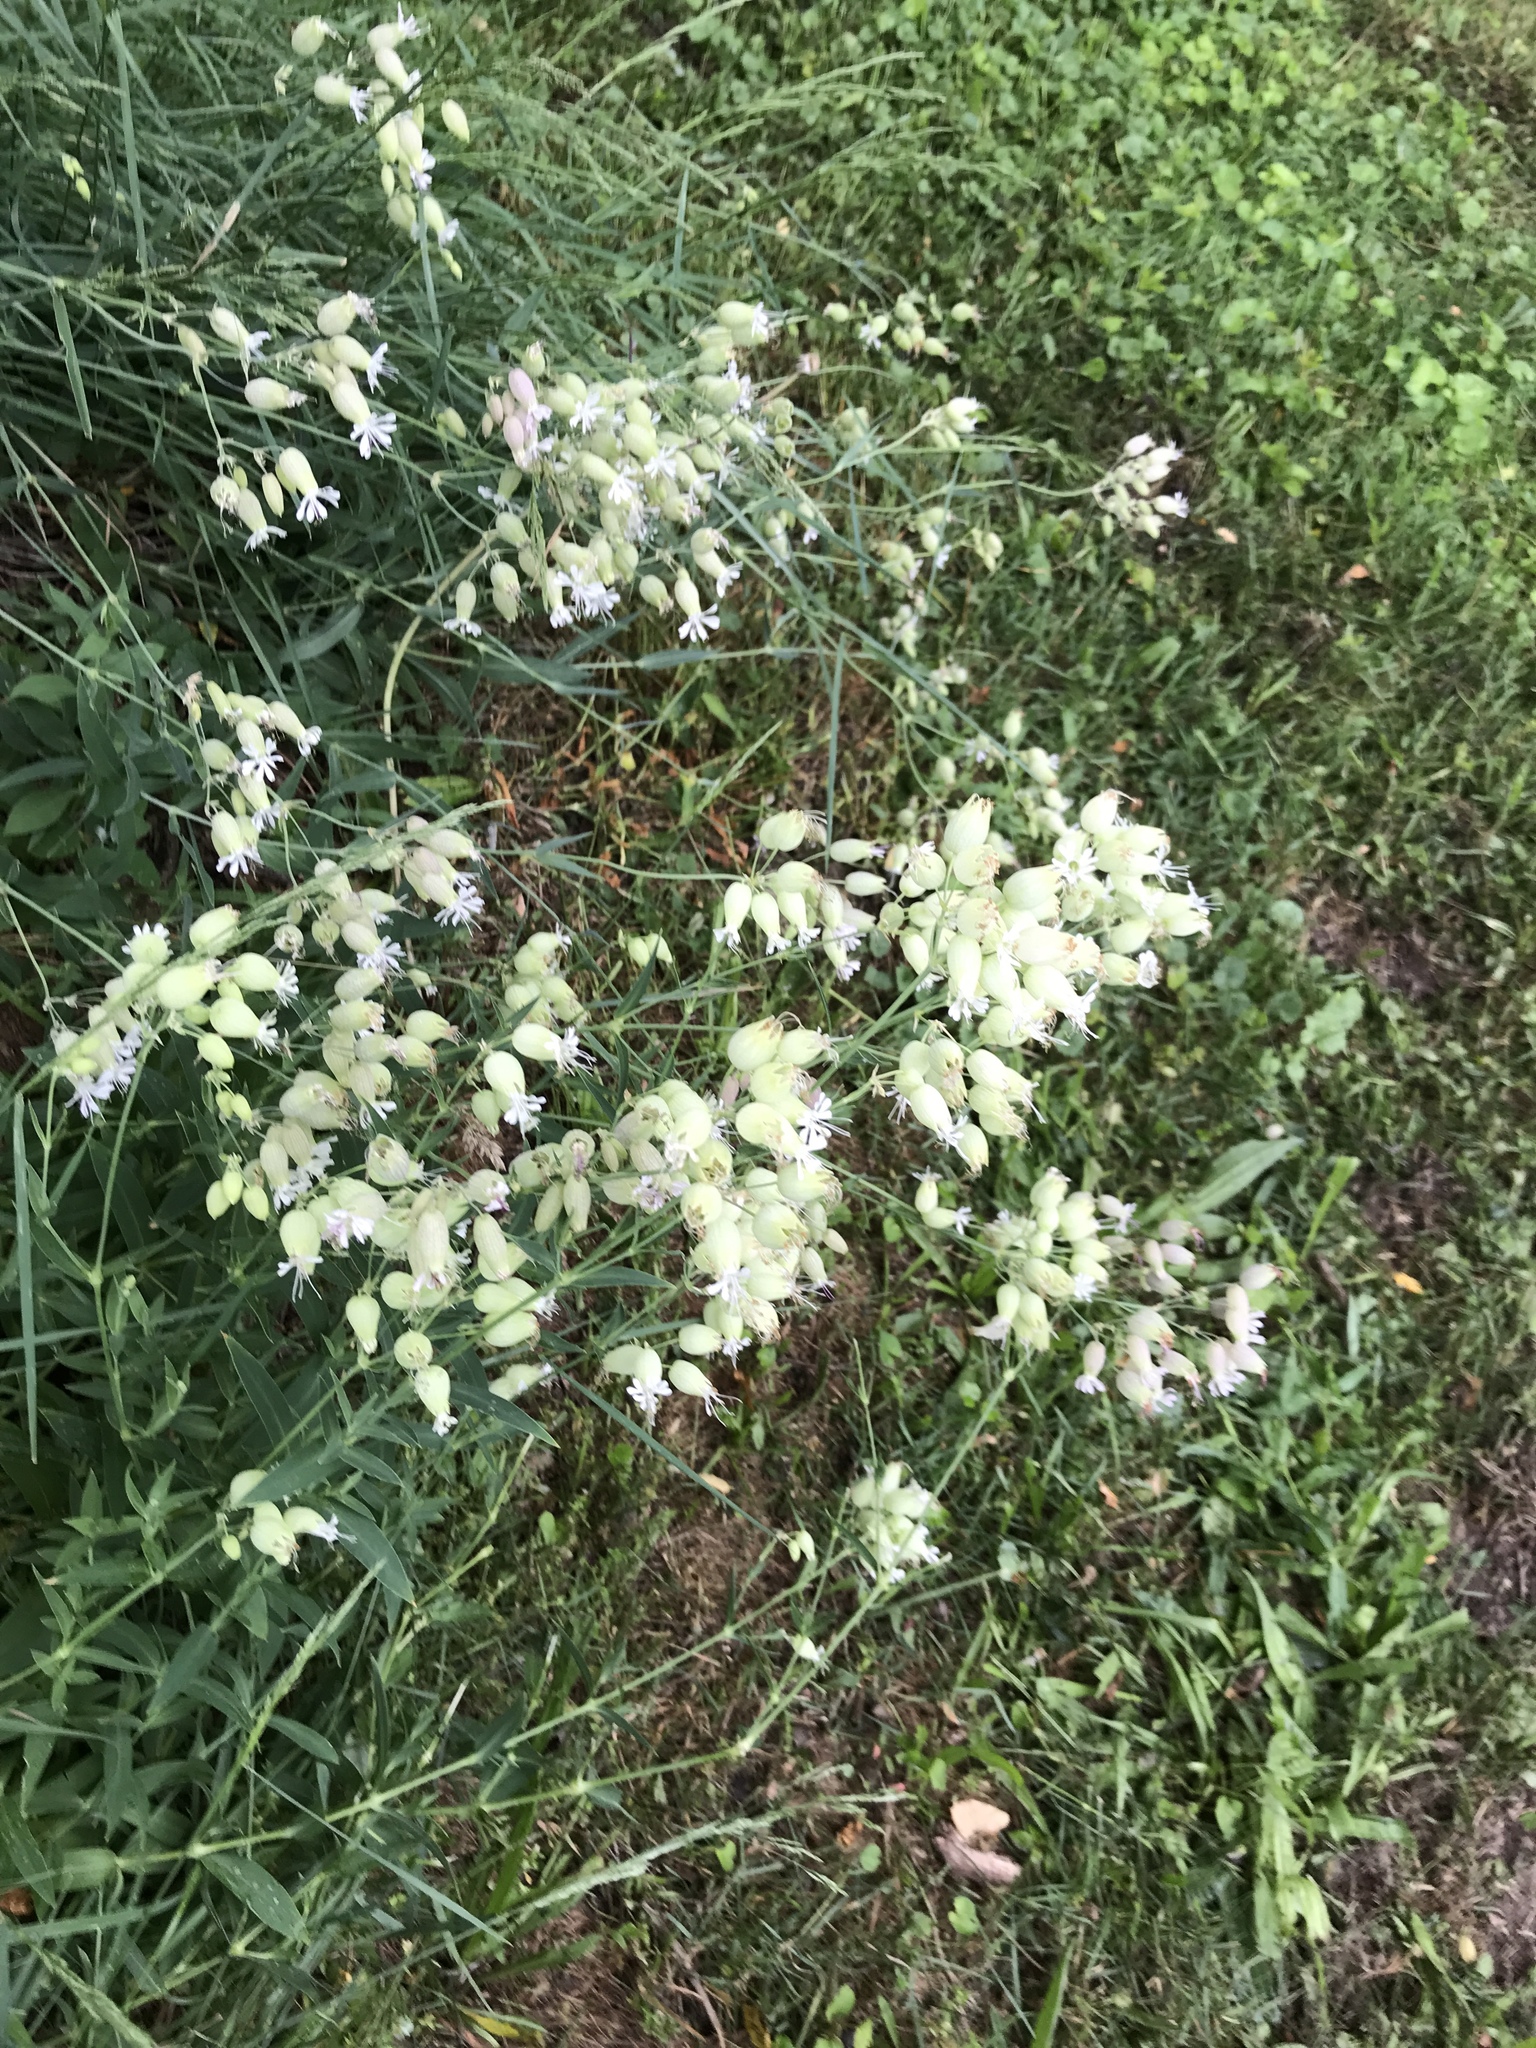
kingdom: Plantae
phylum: Tracheophyta
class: Magnoliopsida
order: Caryophyllales
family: Caryophyllaceae
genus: Silene
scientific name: Silene vulgaris
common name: Bladder campion
